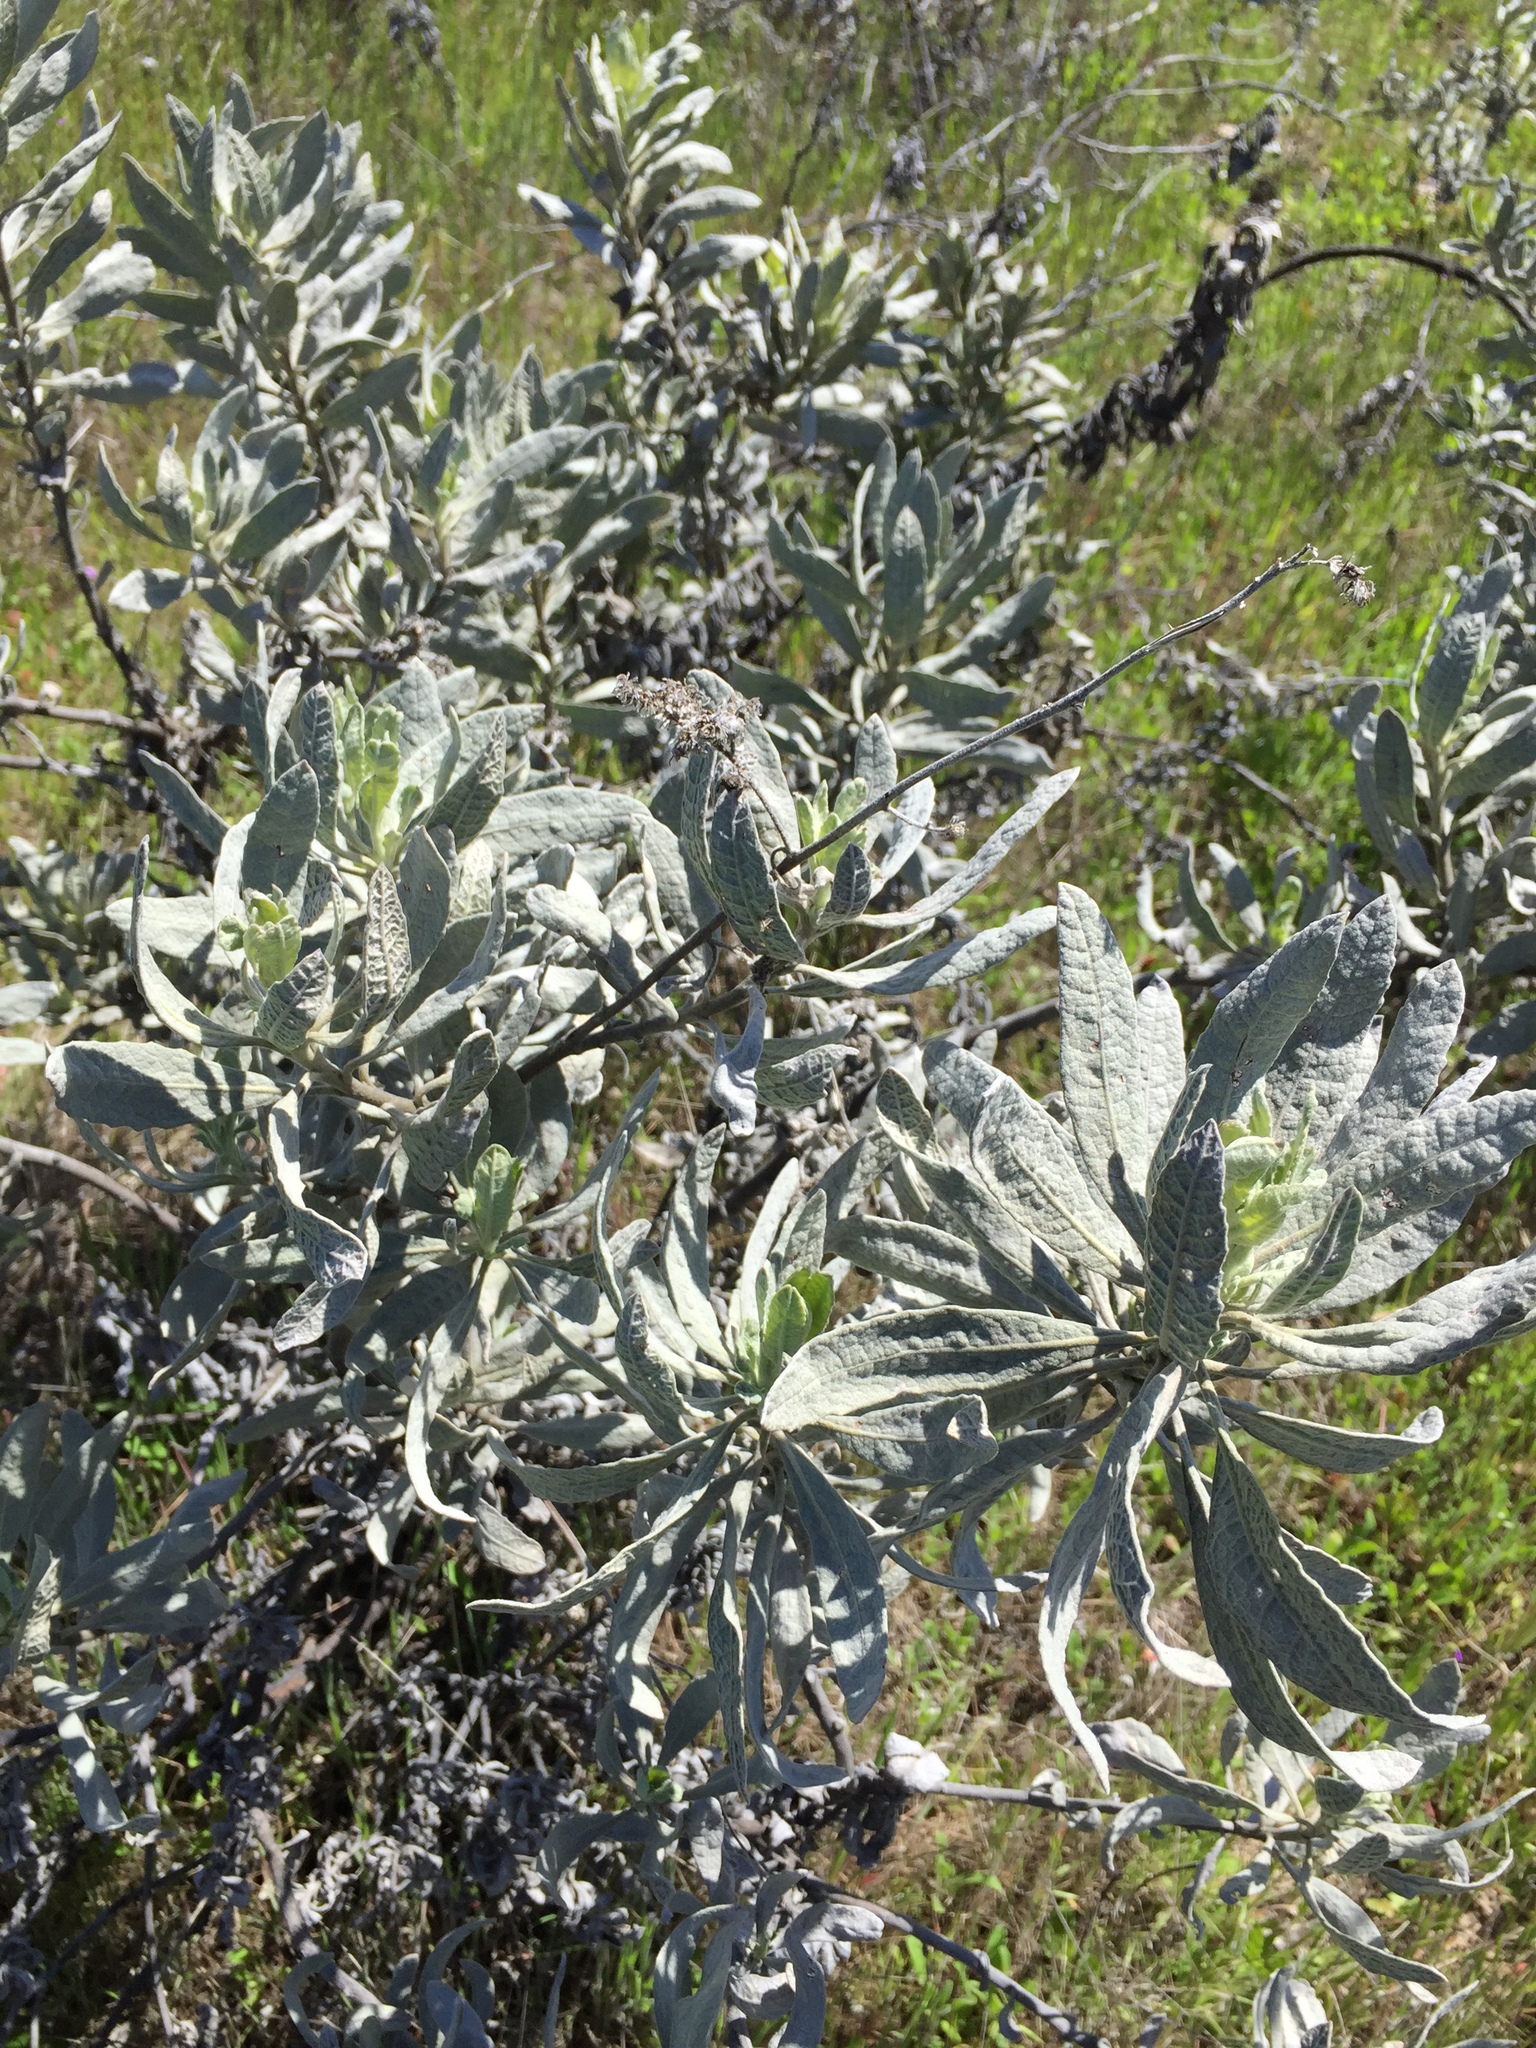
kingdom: Plantae
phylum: Tracheophyta
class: Magnoliopsida
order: Boraginales
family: Namaceae
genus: Eriodictyon
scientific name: Eriodictyon tomentosum
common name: Woolly yerba-santa
